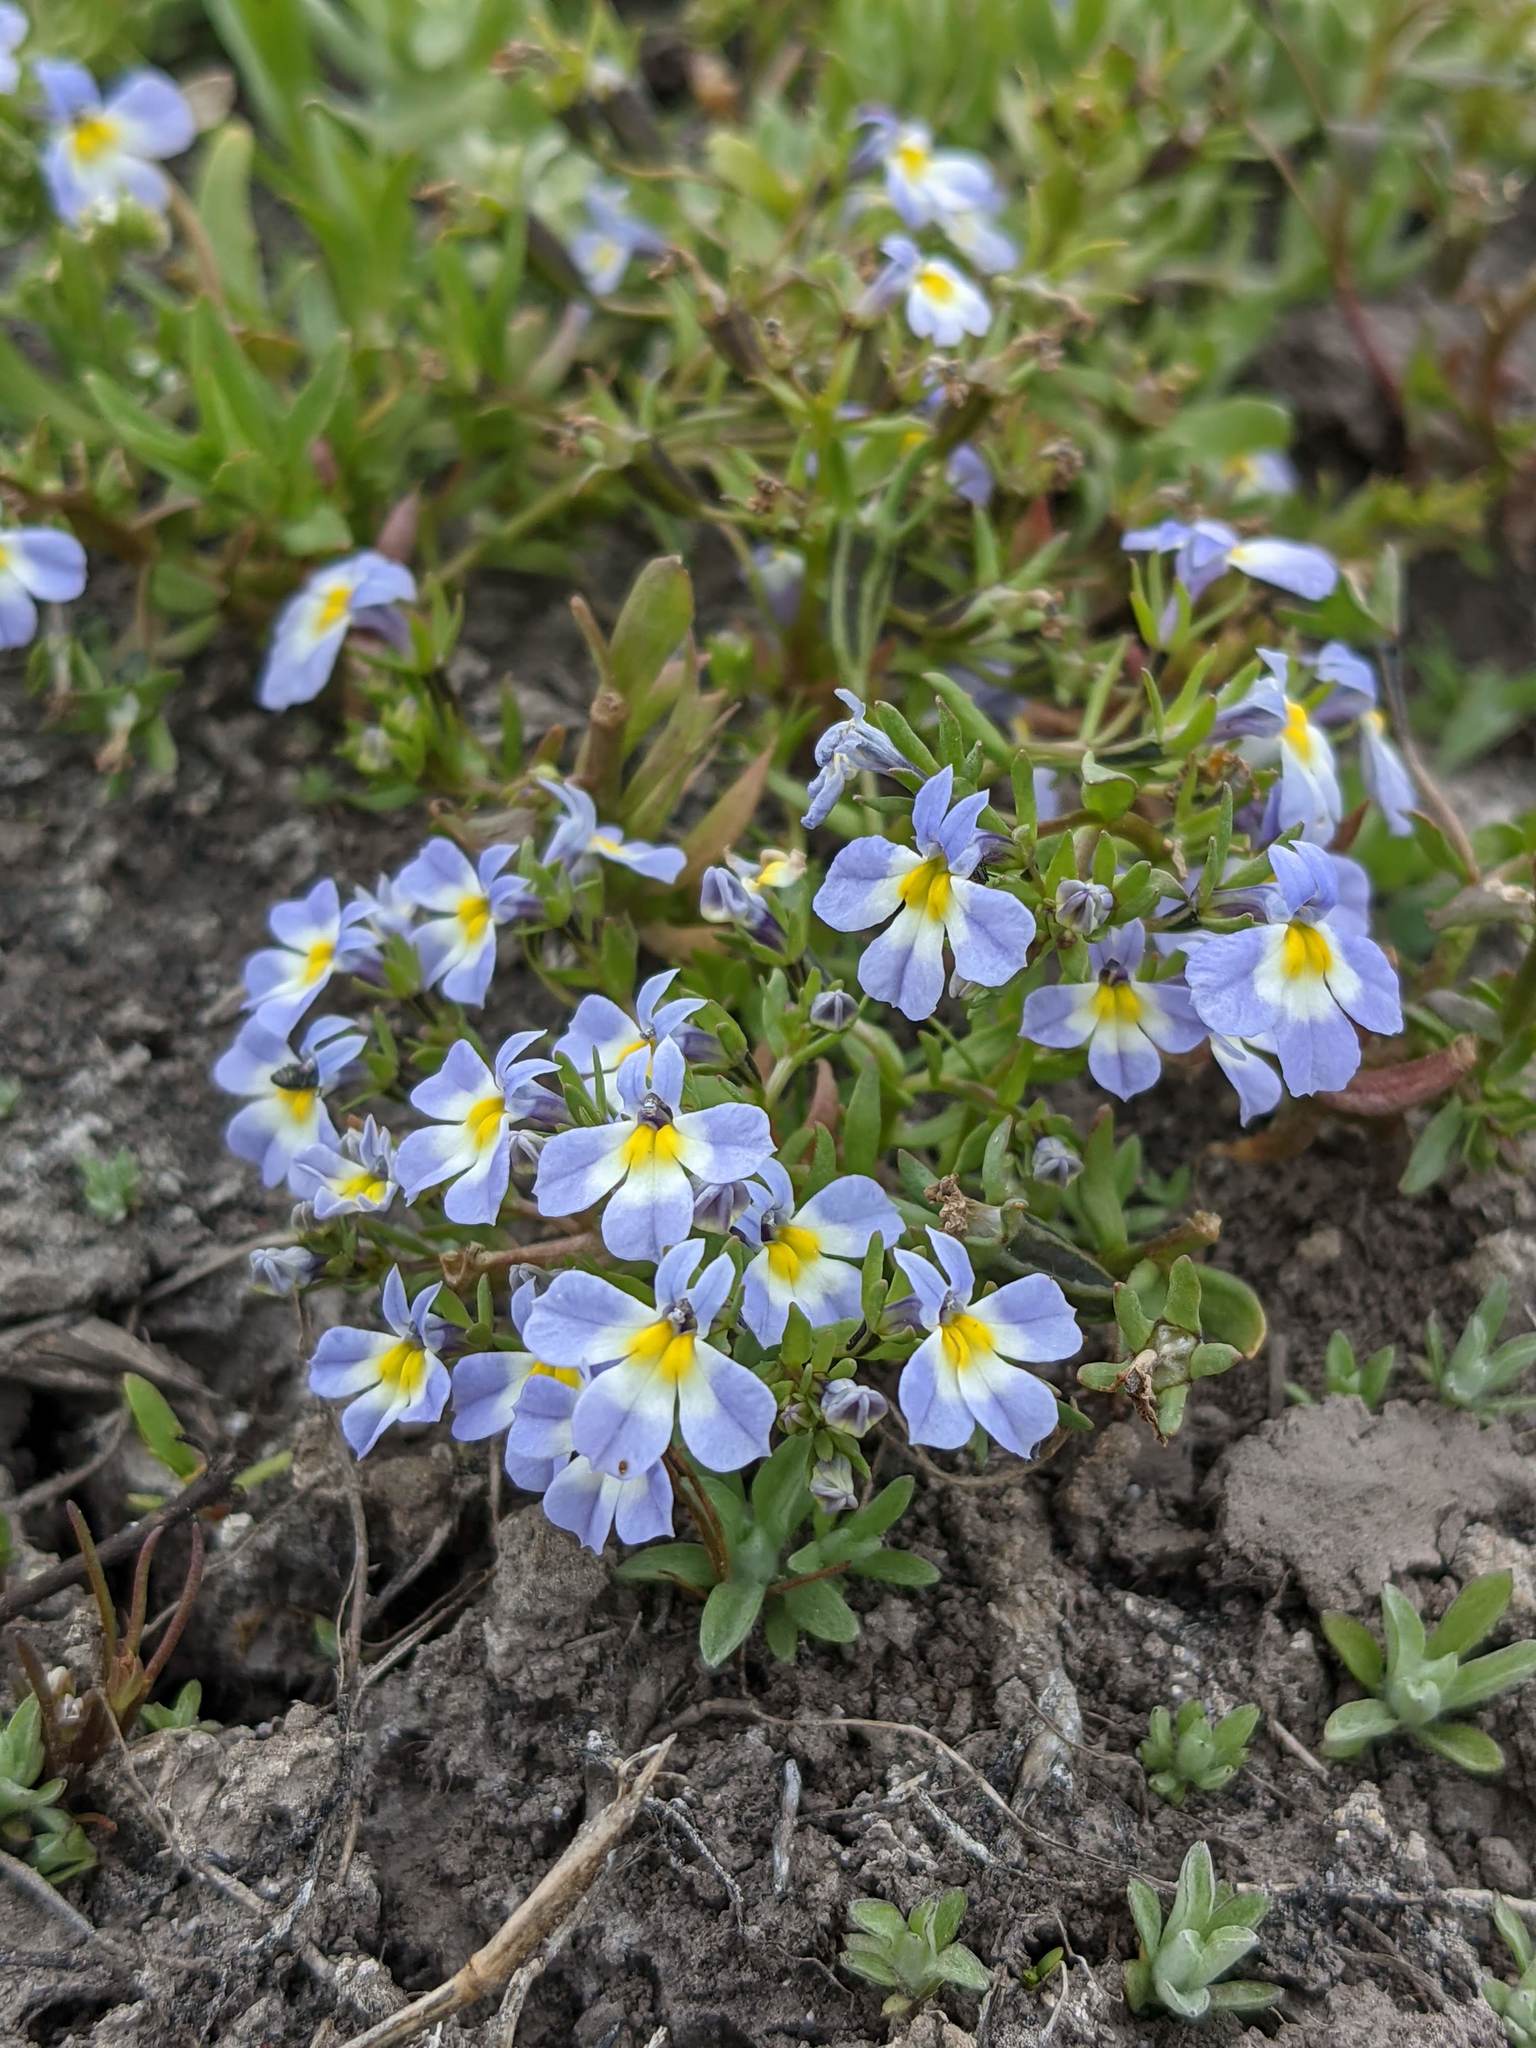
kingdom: Plantae
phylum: Tracheophyta
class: Magnoliopsida
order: Asterales
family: Campanulaceae
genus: Downingia
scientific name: Downingia cuspidata
